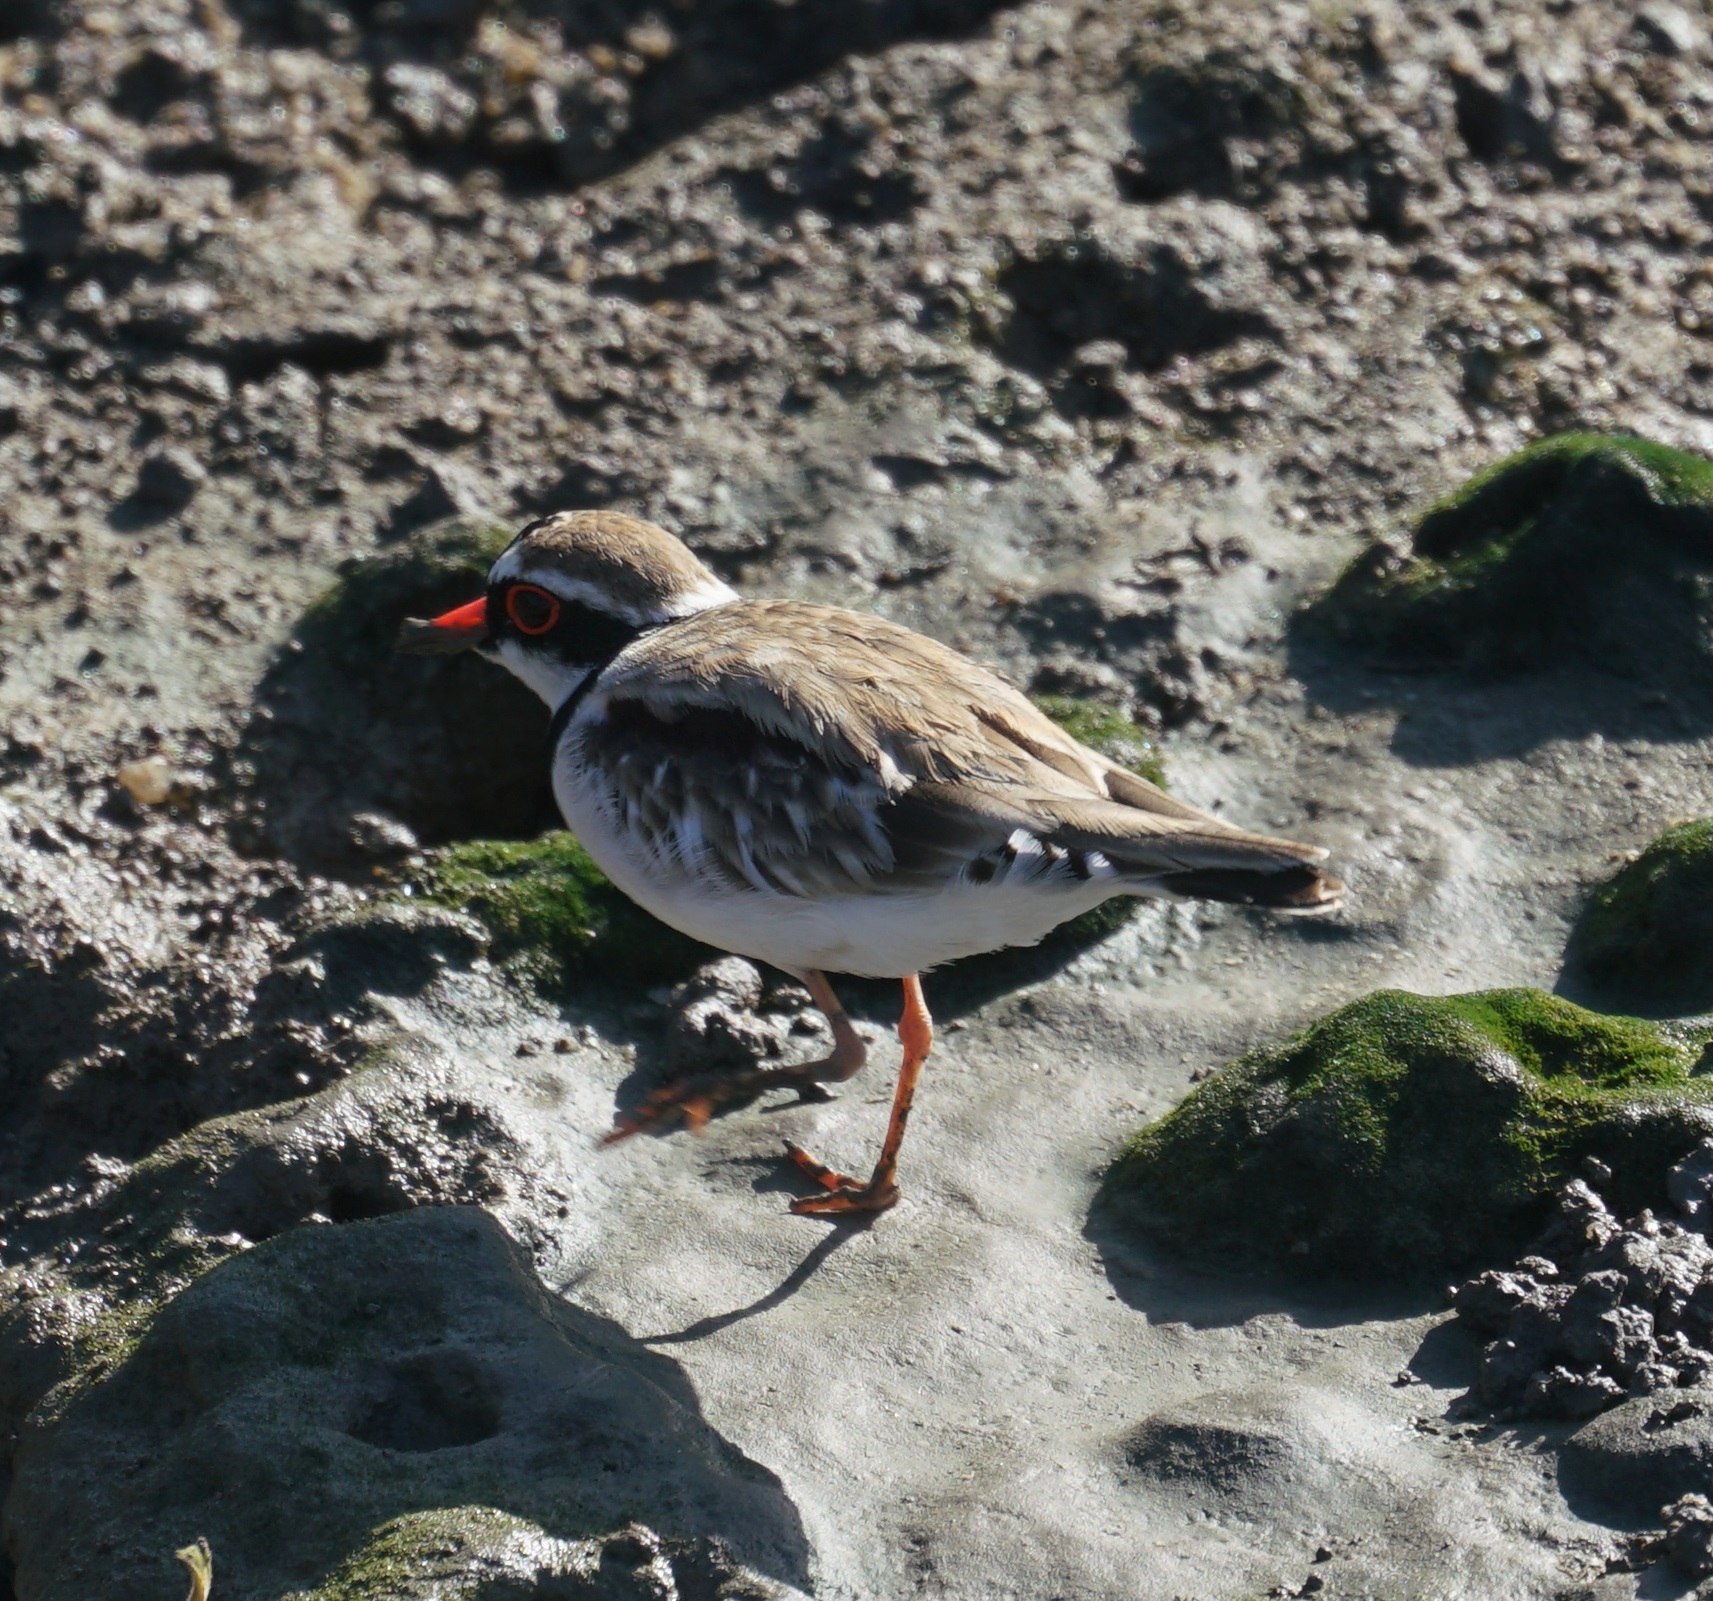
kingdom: Animalia
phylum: Chordata
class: Aves
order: Charadriiformes
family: Charadriidae
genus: Elseyornis
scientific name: Elseyornis melanops
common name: Black-fronted dotterel
